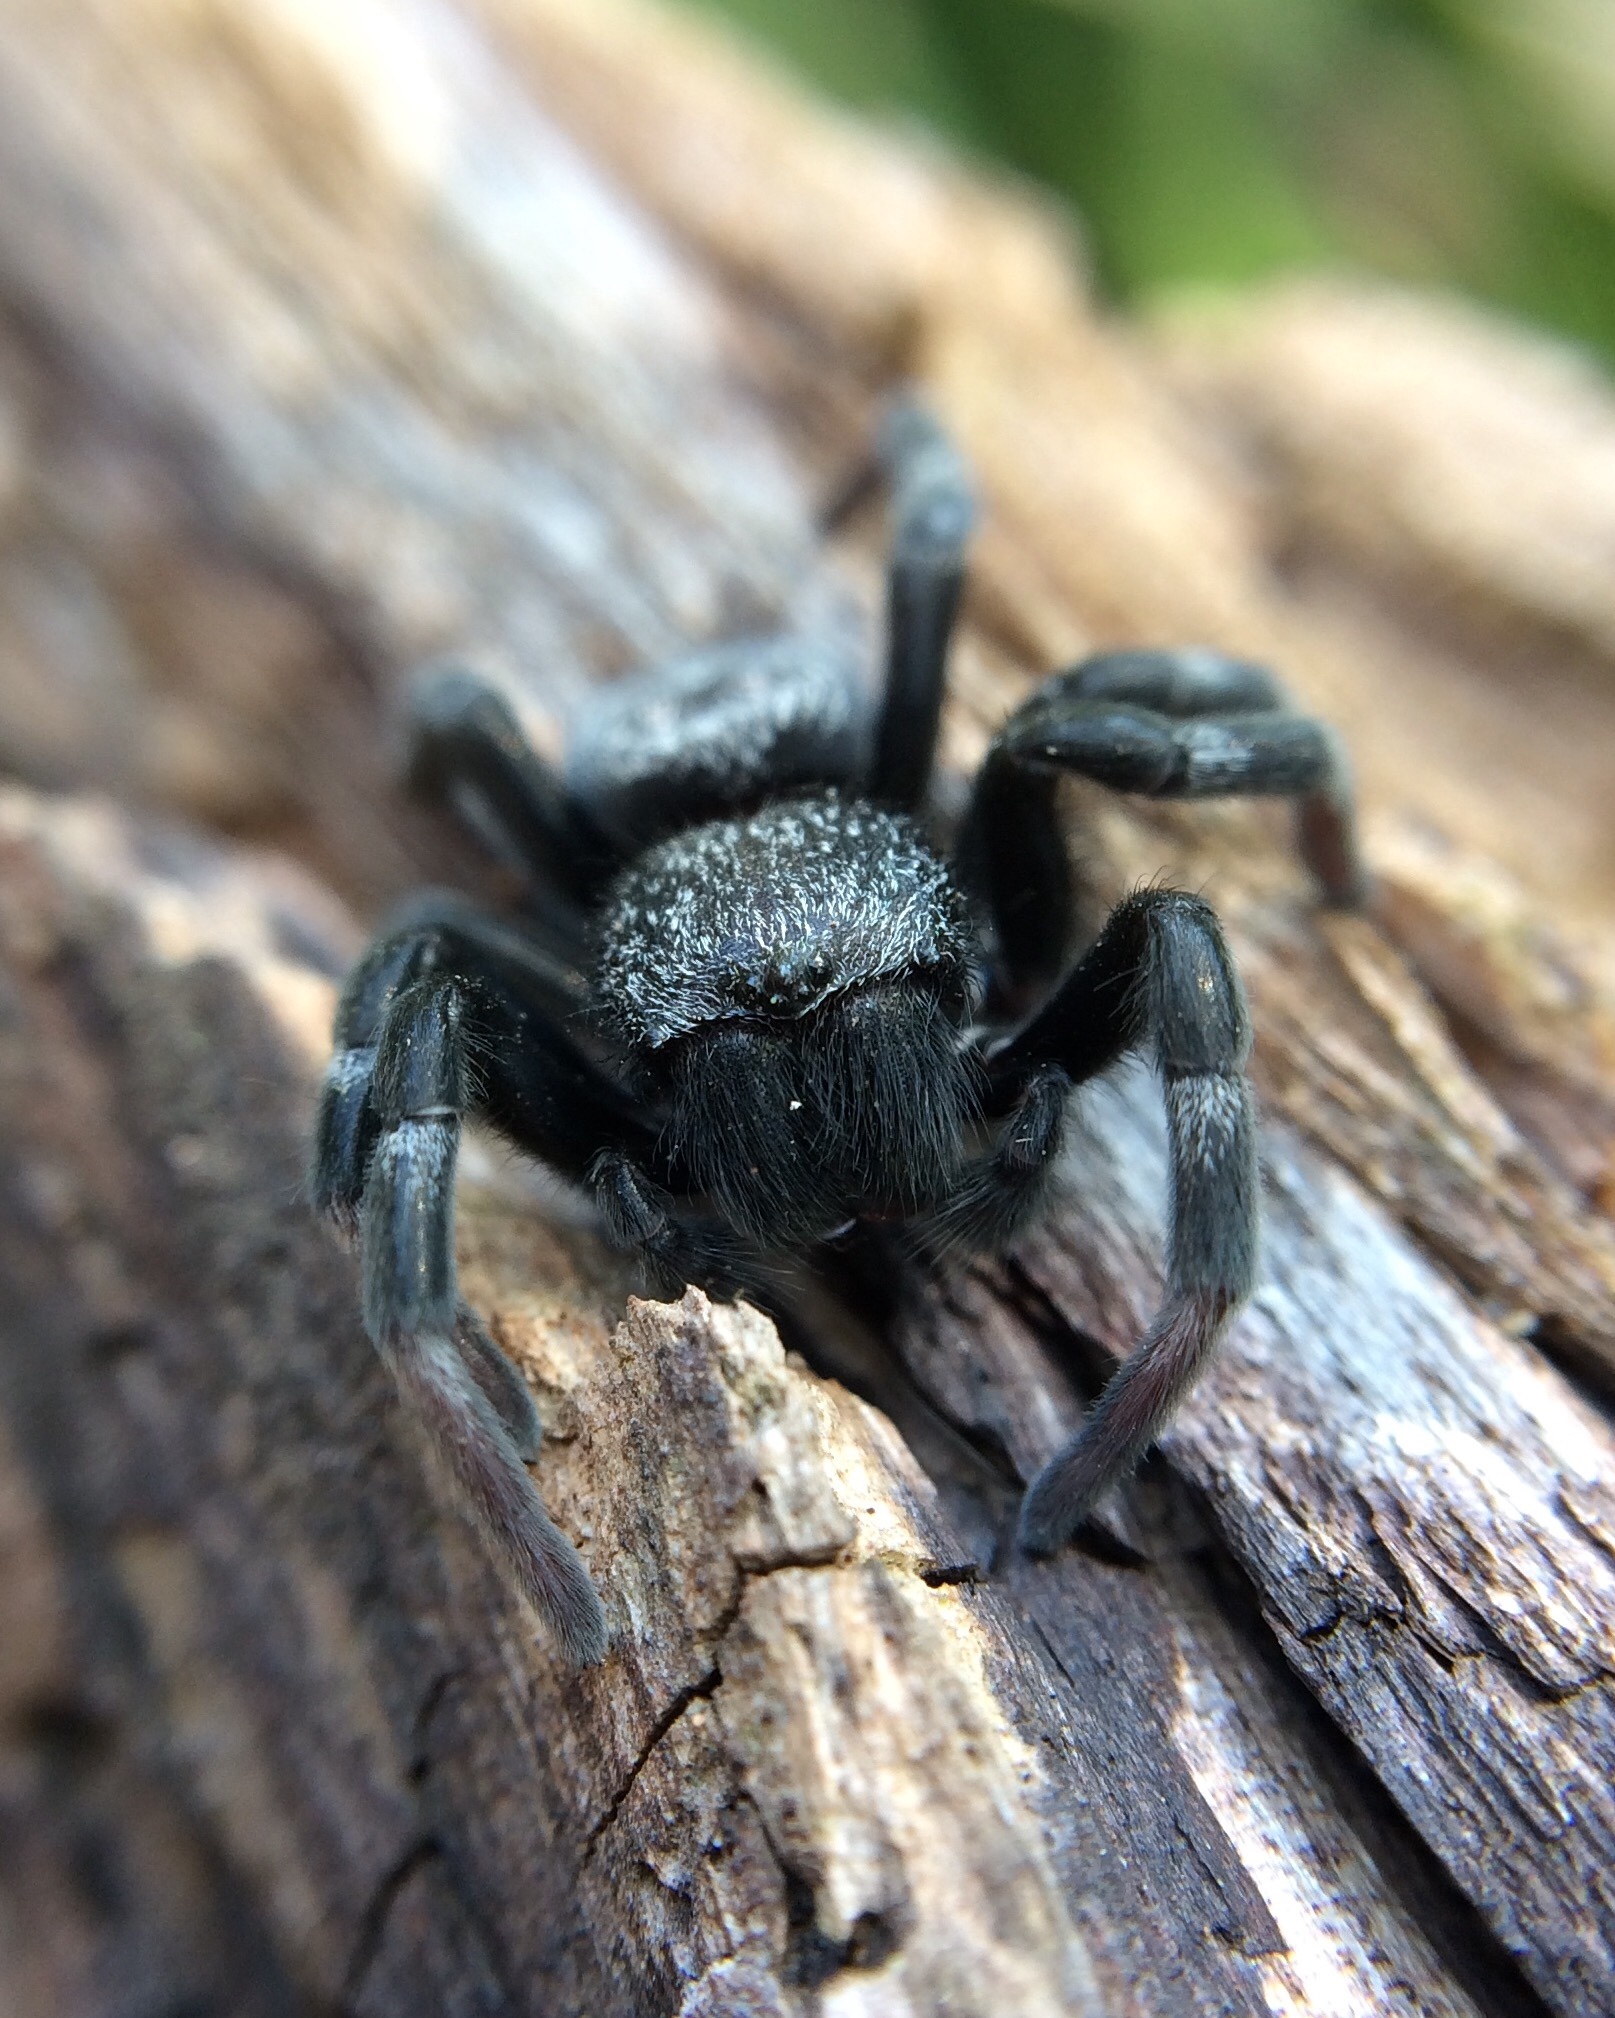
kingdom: Animalia
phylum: Arthropoda
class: Arachnida
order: Araneae
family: Eresidae
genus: Gandanameno
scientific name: Gandanameno spenceri
